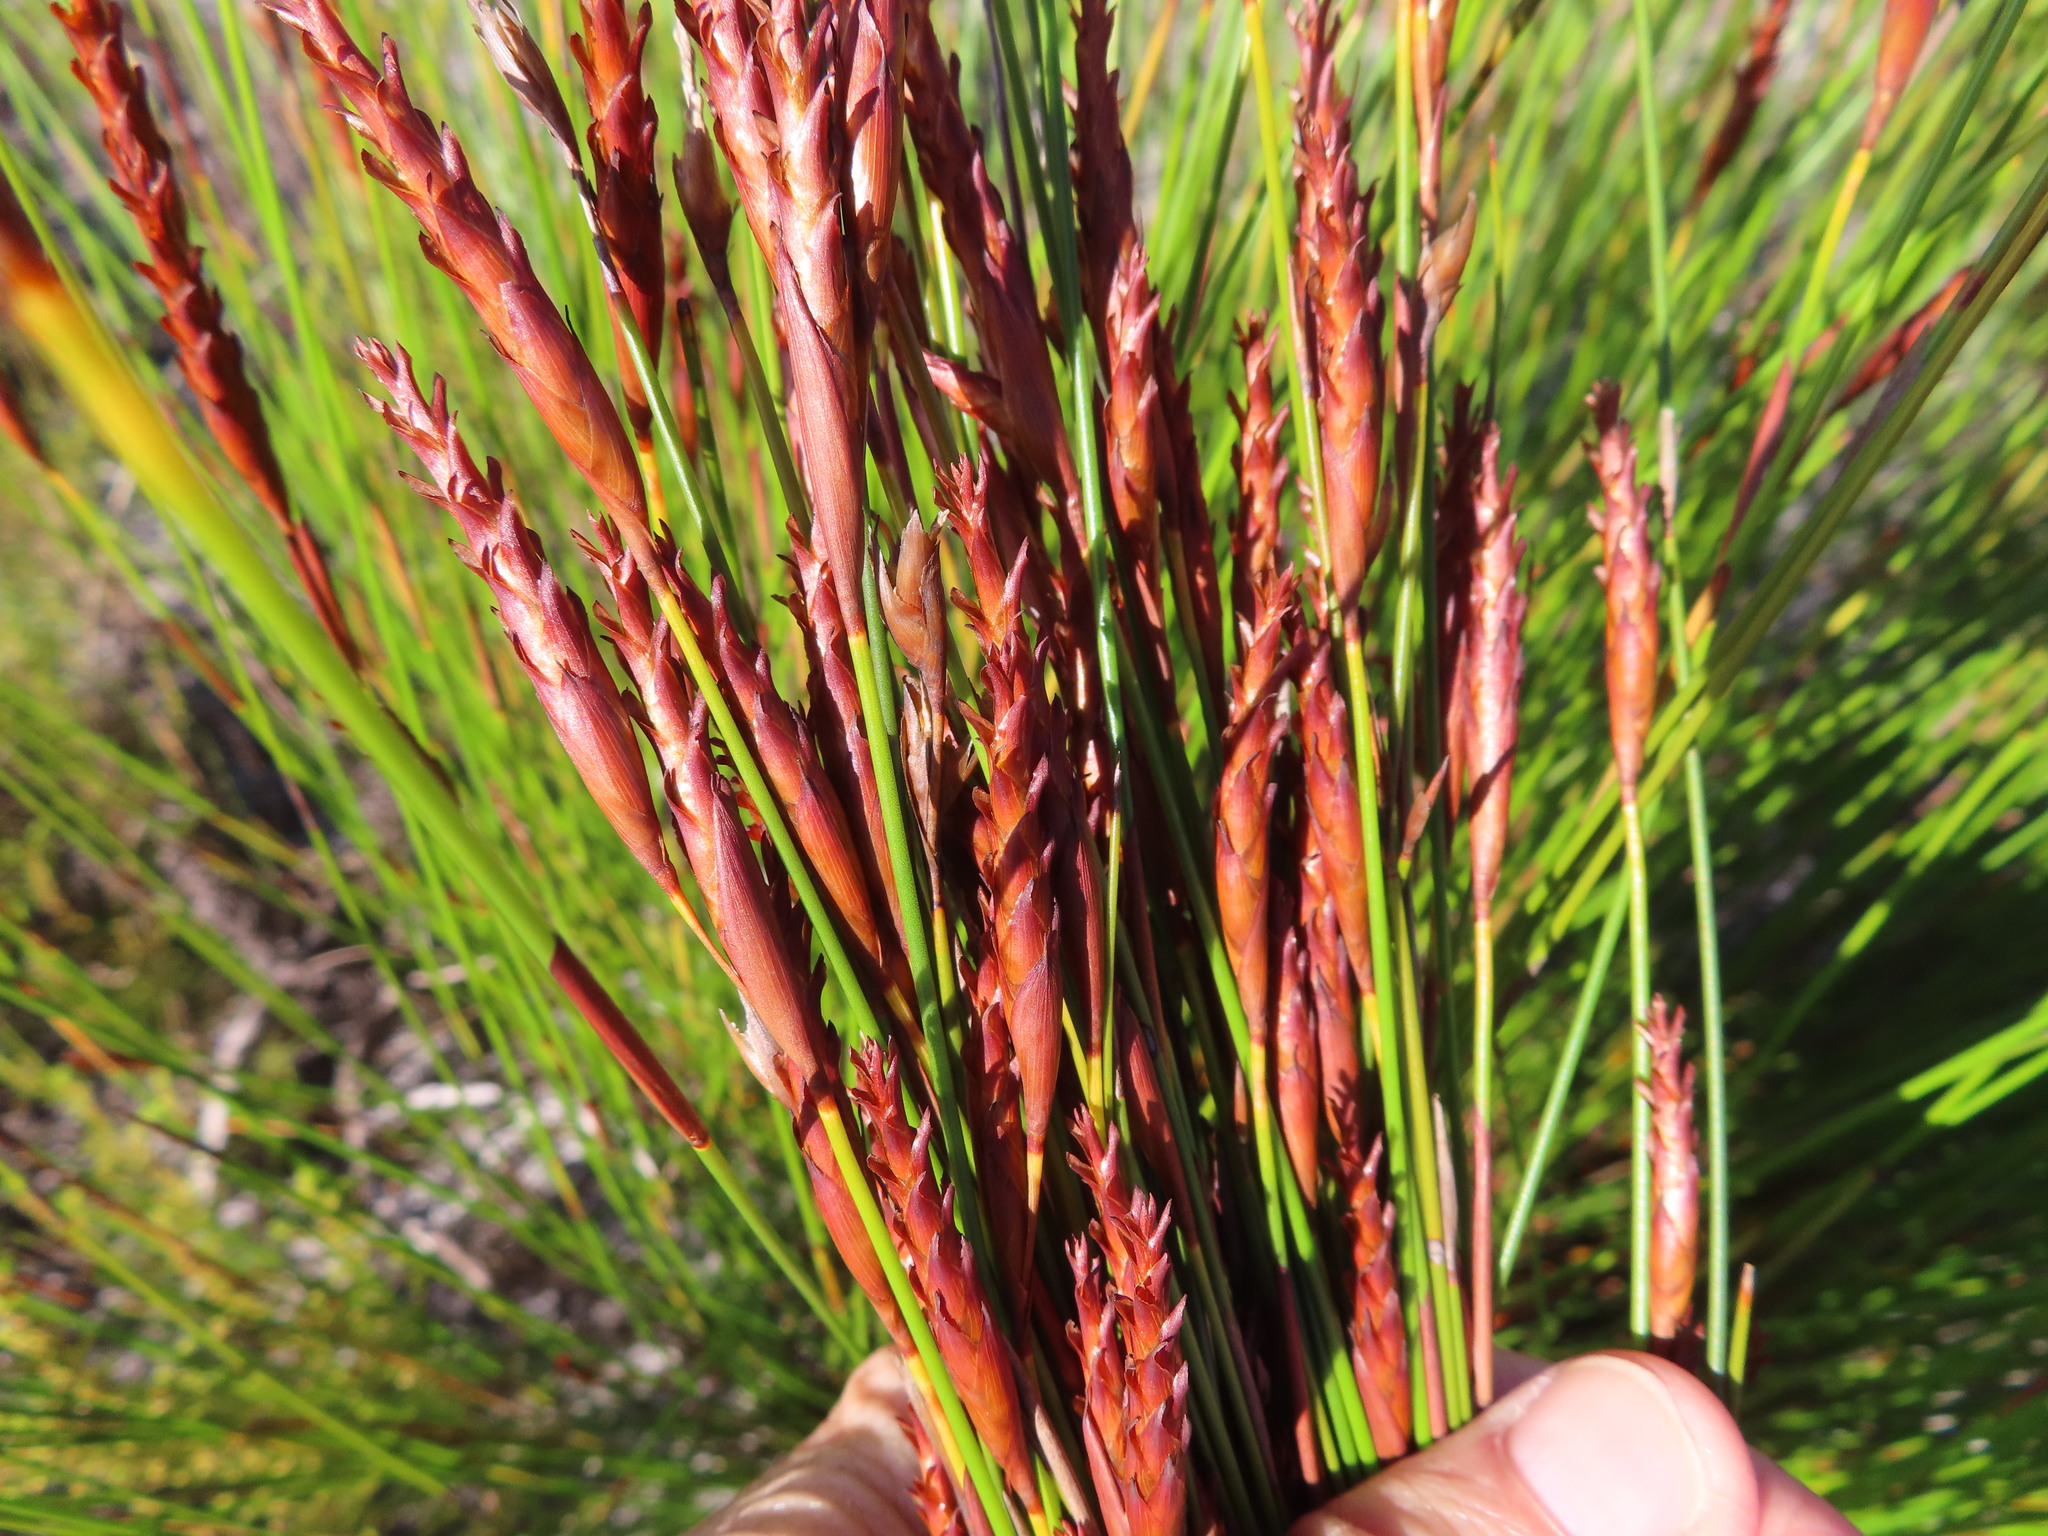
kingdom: Plantae
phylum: Tracheophyta
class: Liliopsida
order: Poales
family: Restionaceae
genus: Staberoha
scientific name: Staberoha cernua
